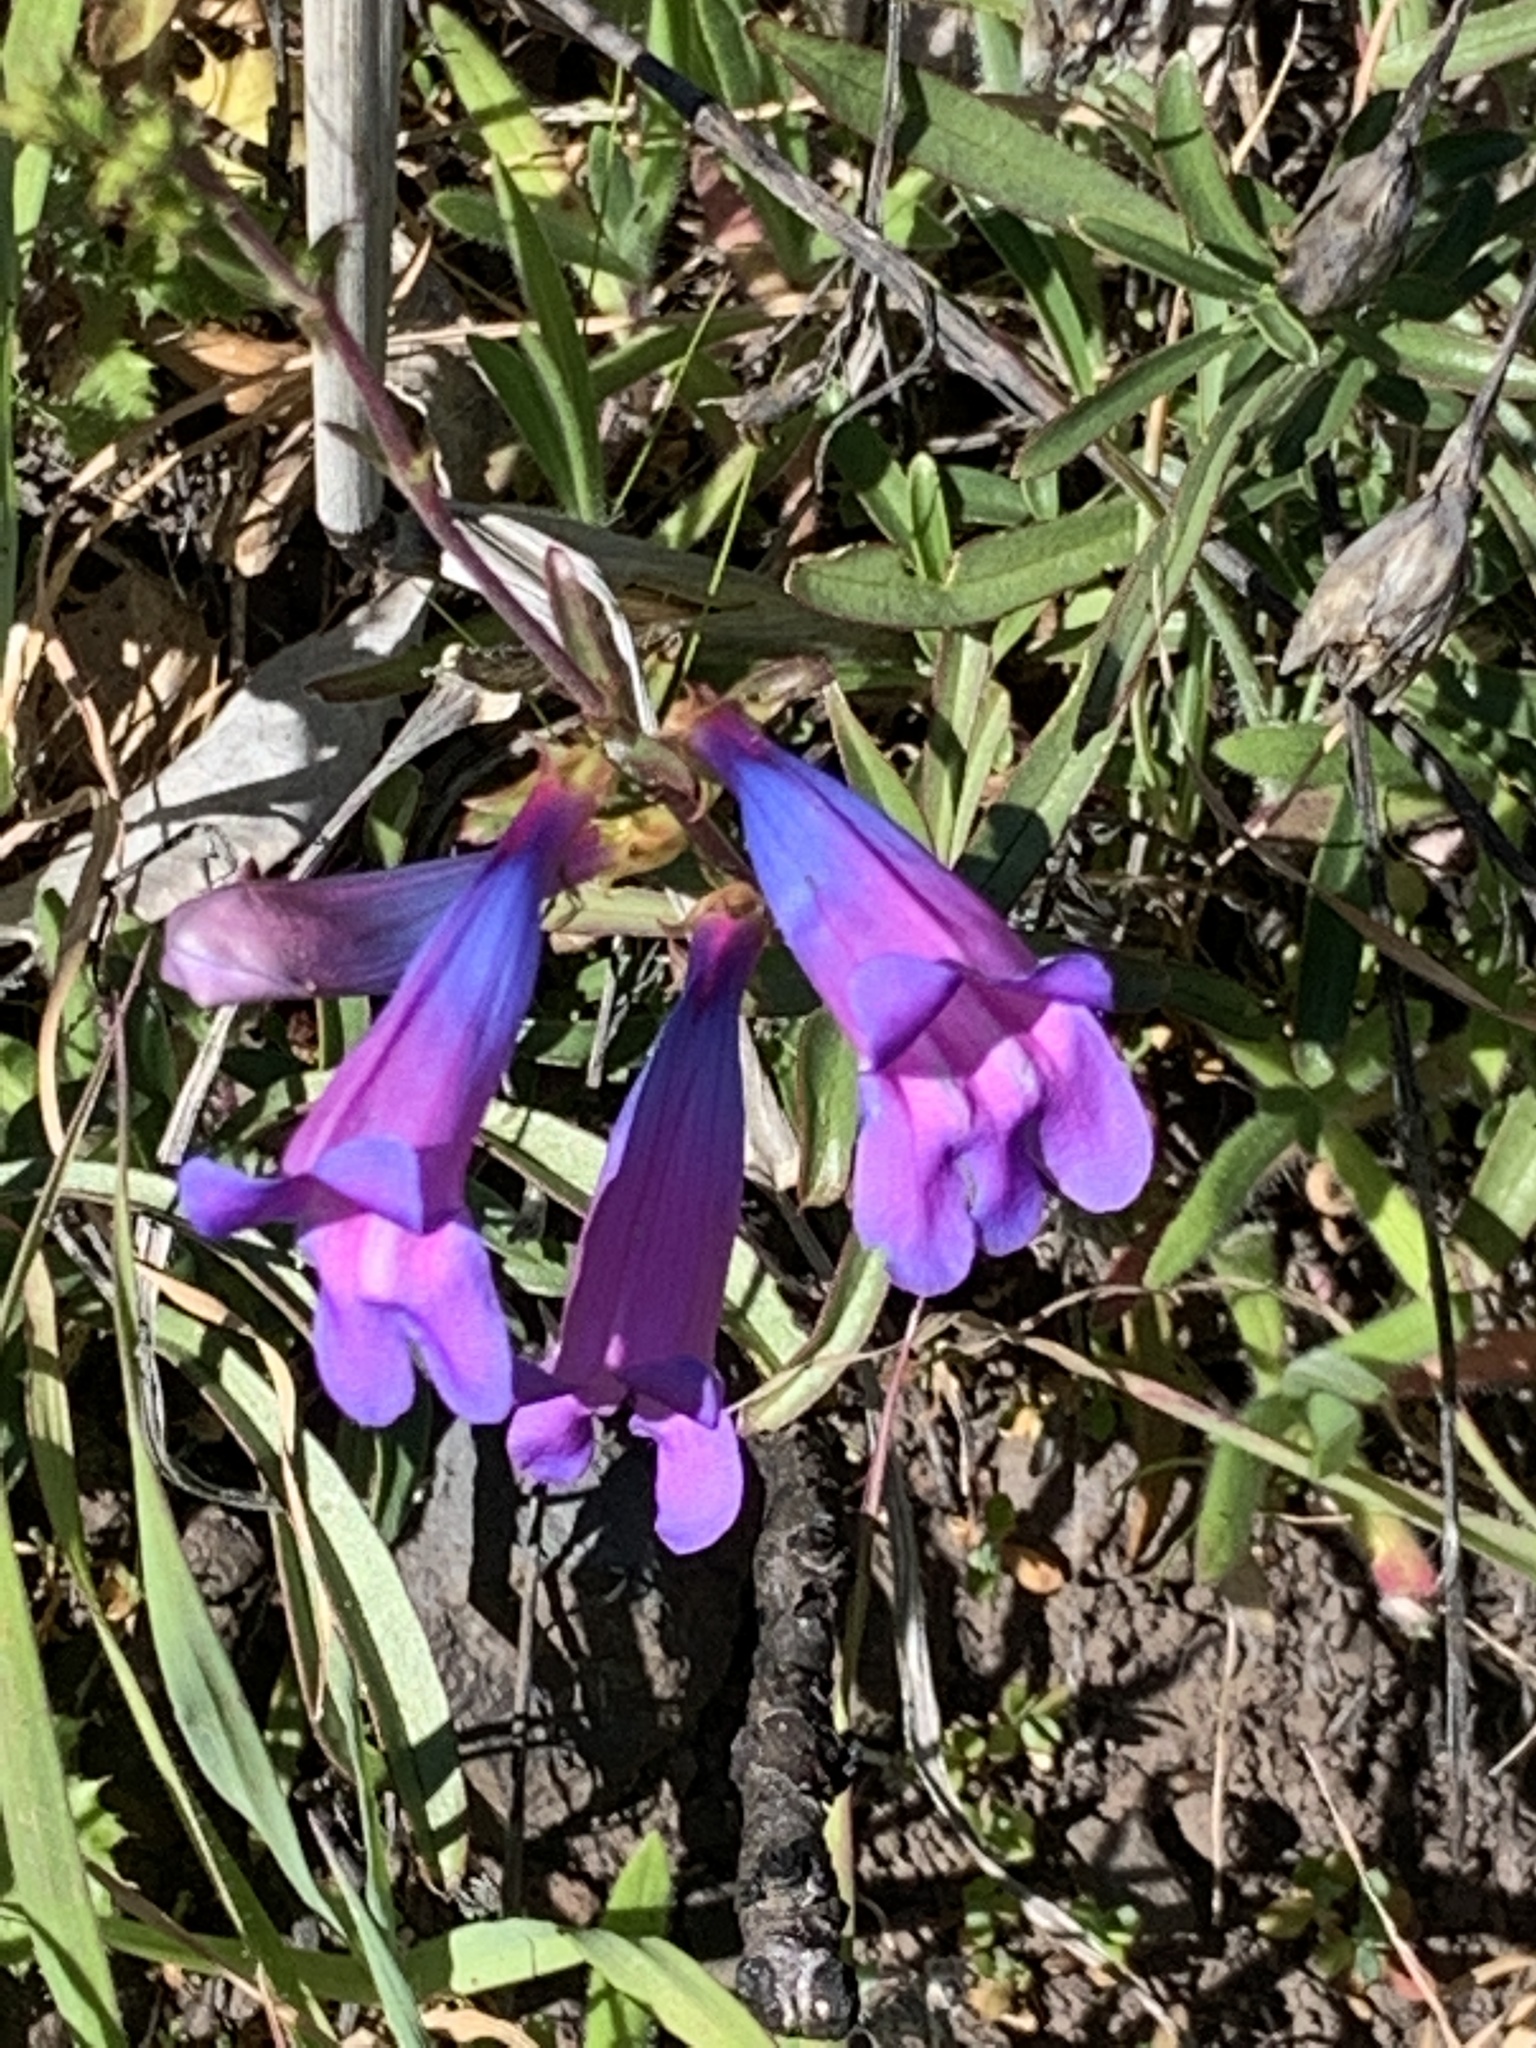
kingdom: Plantae
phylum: Tracheophyta
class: Magnoliopsida
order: Lamiales
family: Plantaginaceae
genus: Penstemon
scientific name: Penstemon heterophyllus
